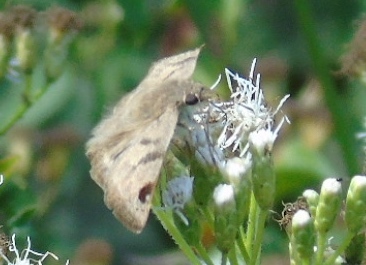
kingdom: Animalia
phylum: Arthropoda
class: Insecta
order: Lepidoptera
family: Hesperiidae
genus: Arteurotia
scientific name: Arteurotia tractipennis
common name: Starred skipper
